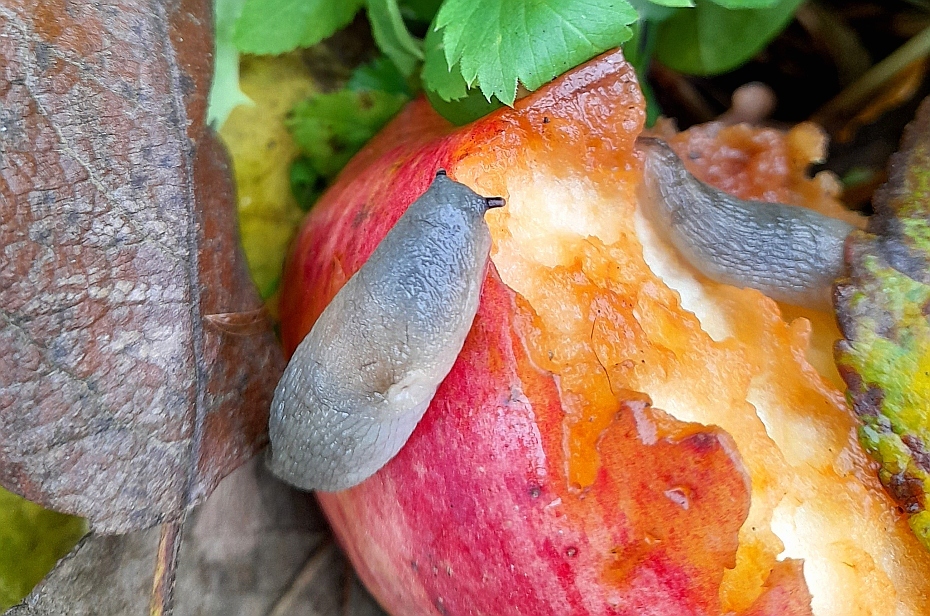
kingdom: Animalia
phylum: Mollusca
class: Gastropoda
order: Stylommatophora
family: Agriolimacidae
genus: Krynickillus
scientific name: Krynickillus melanocephalus
